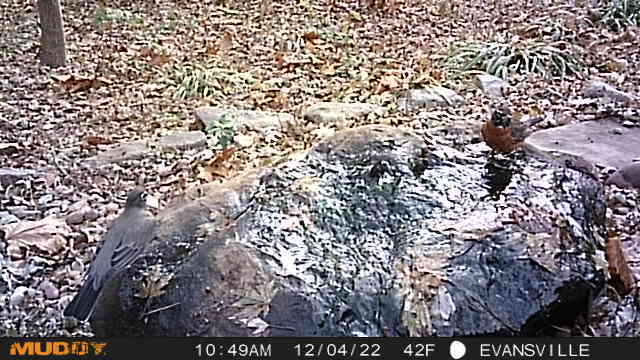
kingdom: Animalia
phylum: Chordata
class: Aves
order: Passeriformes
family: Turdidae
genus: Turdus
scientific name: Turdus migratorius
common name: American robin
